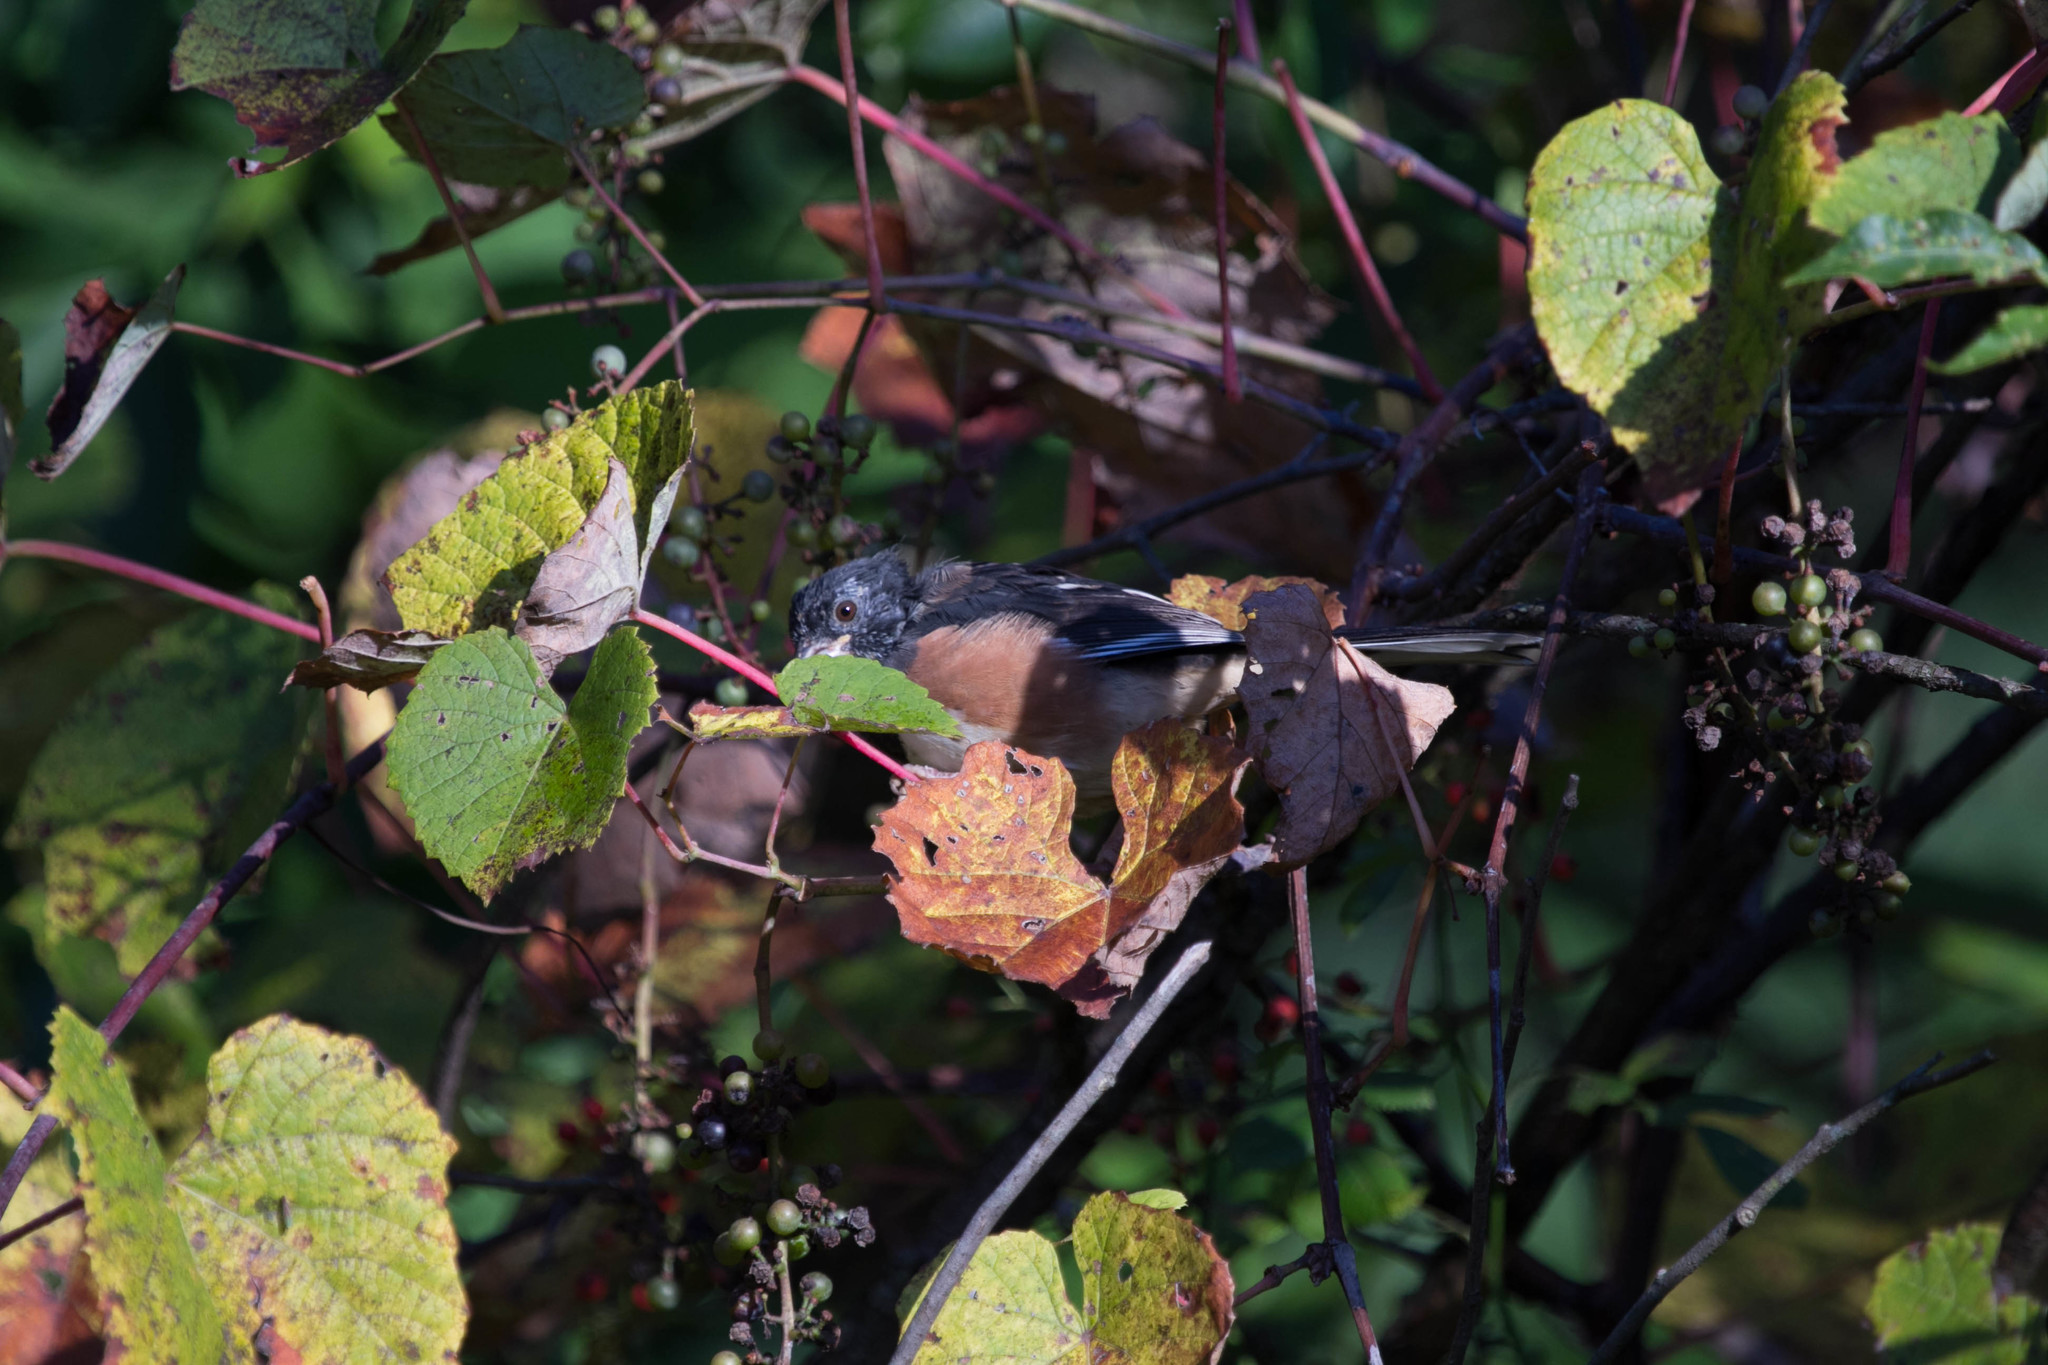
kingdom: Animalia
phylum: Chordata
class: Aves
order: Passeriformes
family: Passerellidae
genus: Pipilo
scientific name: Pipilo erythrophthalmus
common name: Eastern towhee
